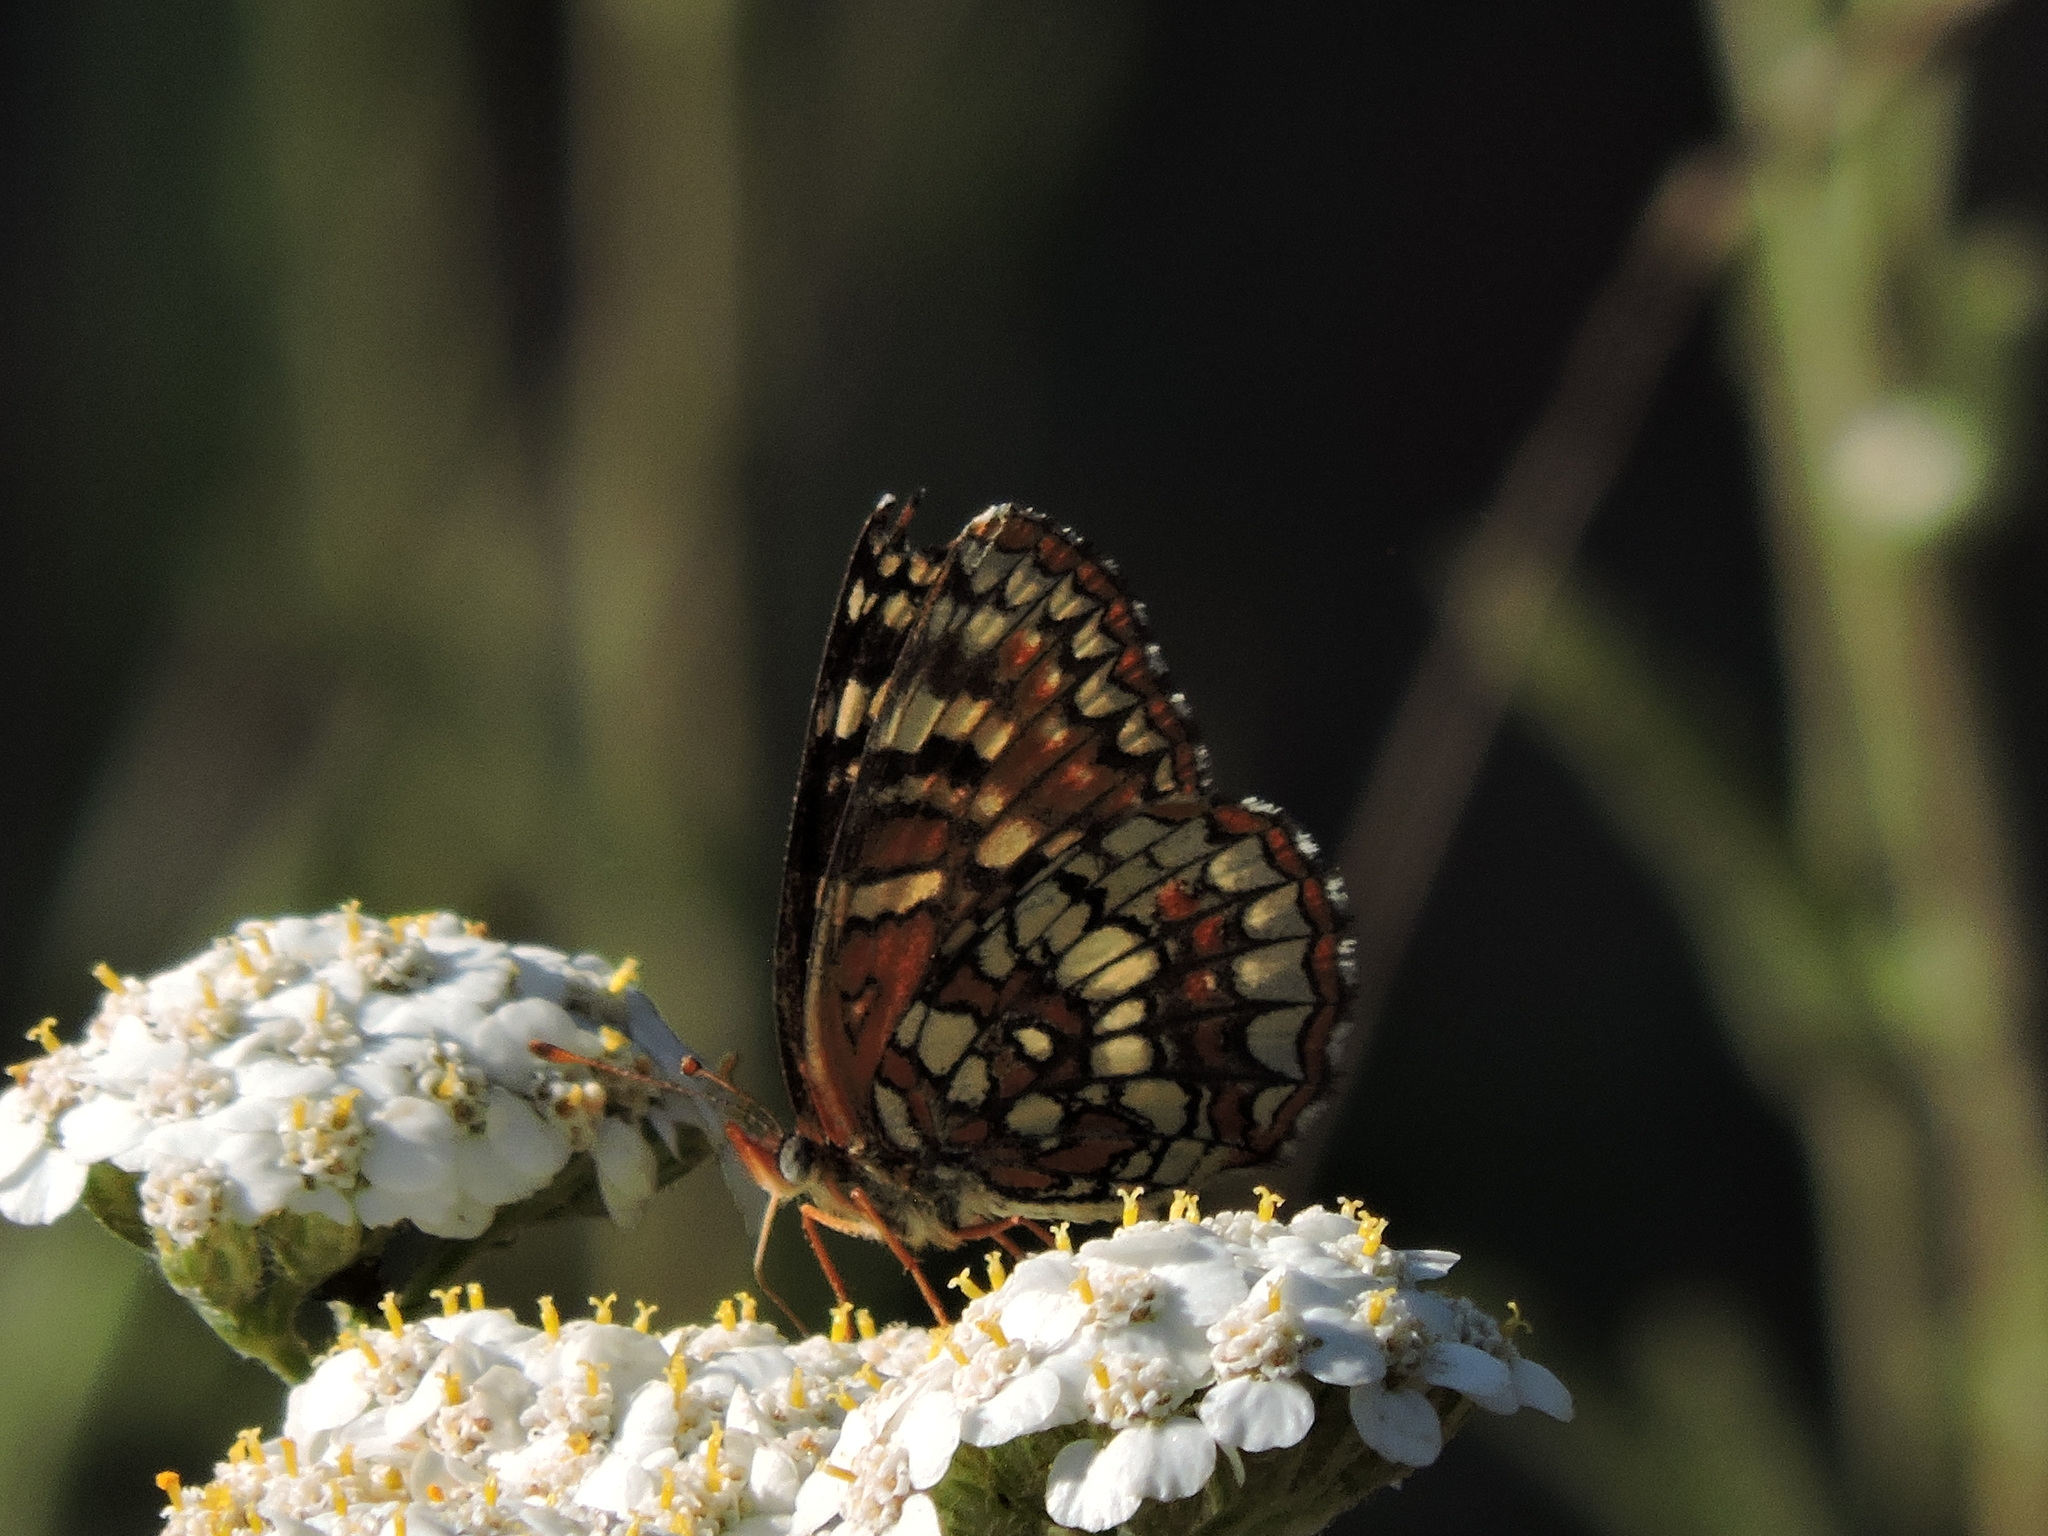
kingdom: Animalia
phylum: Arthropoda
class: Insecta
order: Lepidoptera
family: Nymphalidae
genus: Chlosyne
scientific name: Chlosyne palla
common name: Northern checkerspot
